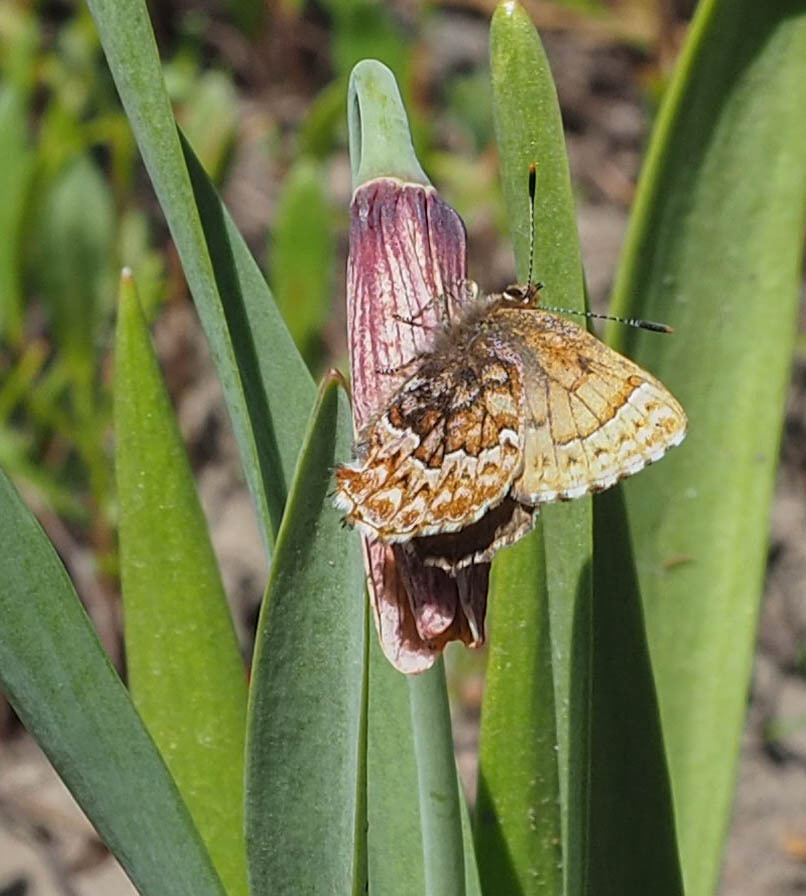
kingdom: Animalia
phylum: Arthropoda
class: Insecta
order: Lepidoptera
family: Lycaenidae
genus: Incisalia
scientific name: Incisalia eryphon
